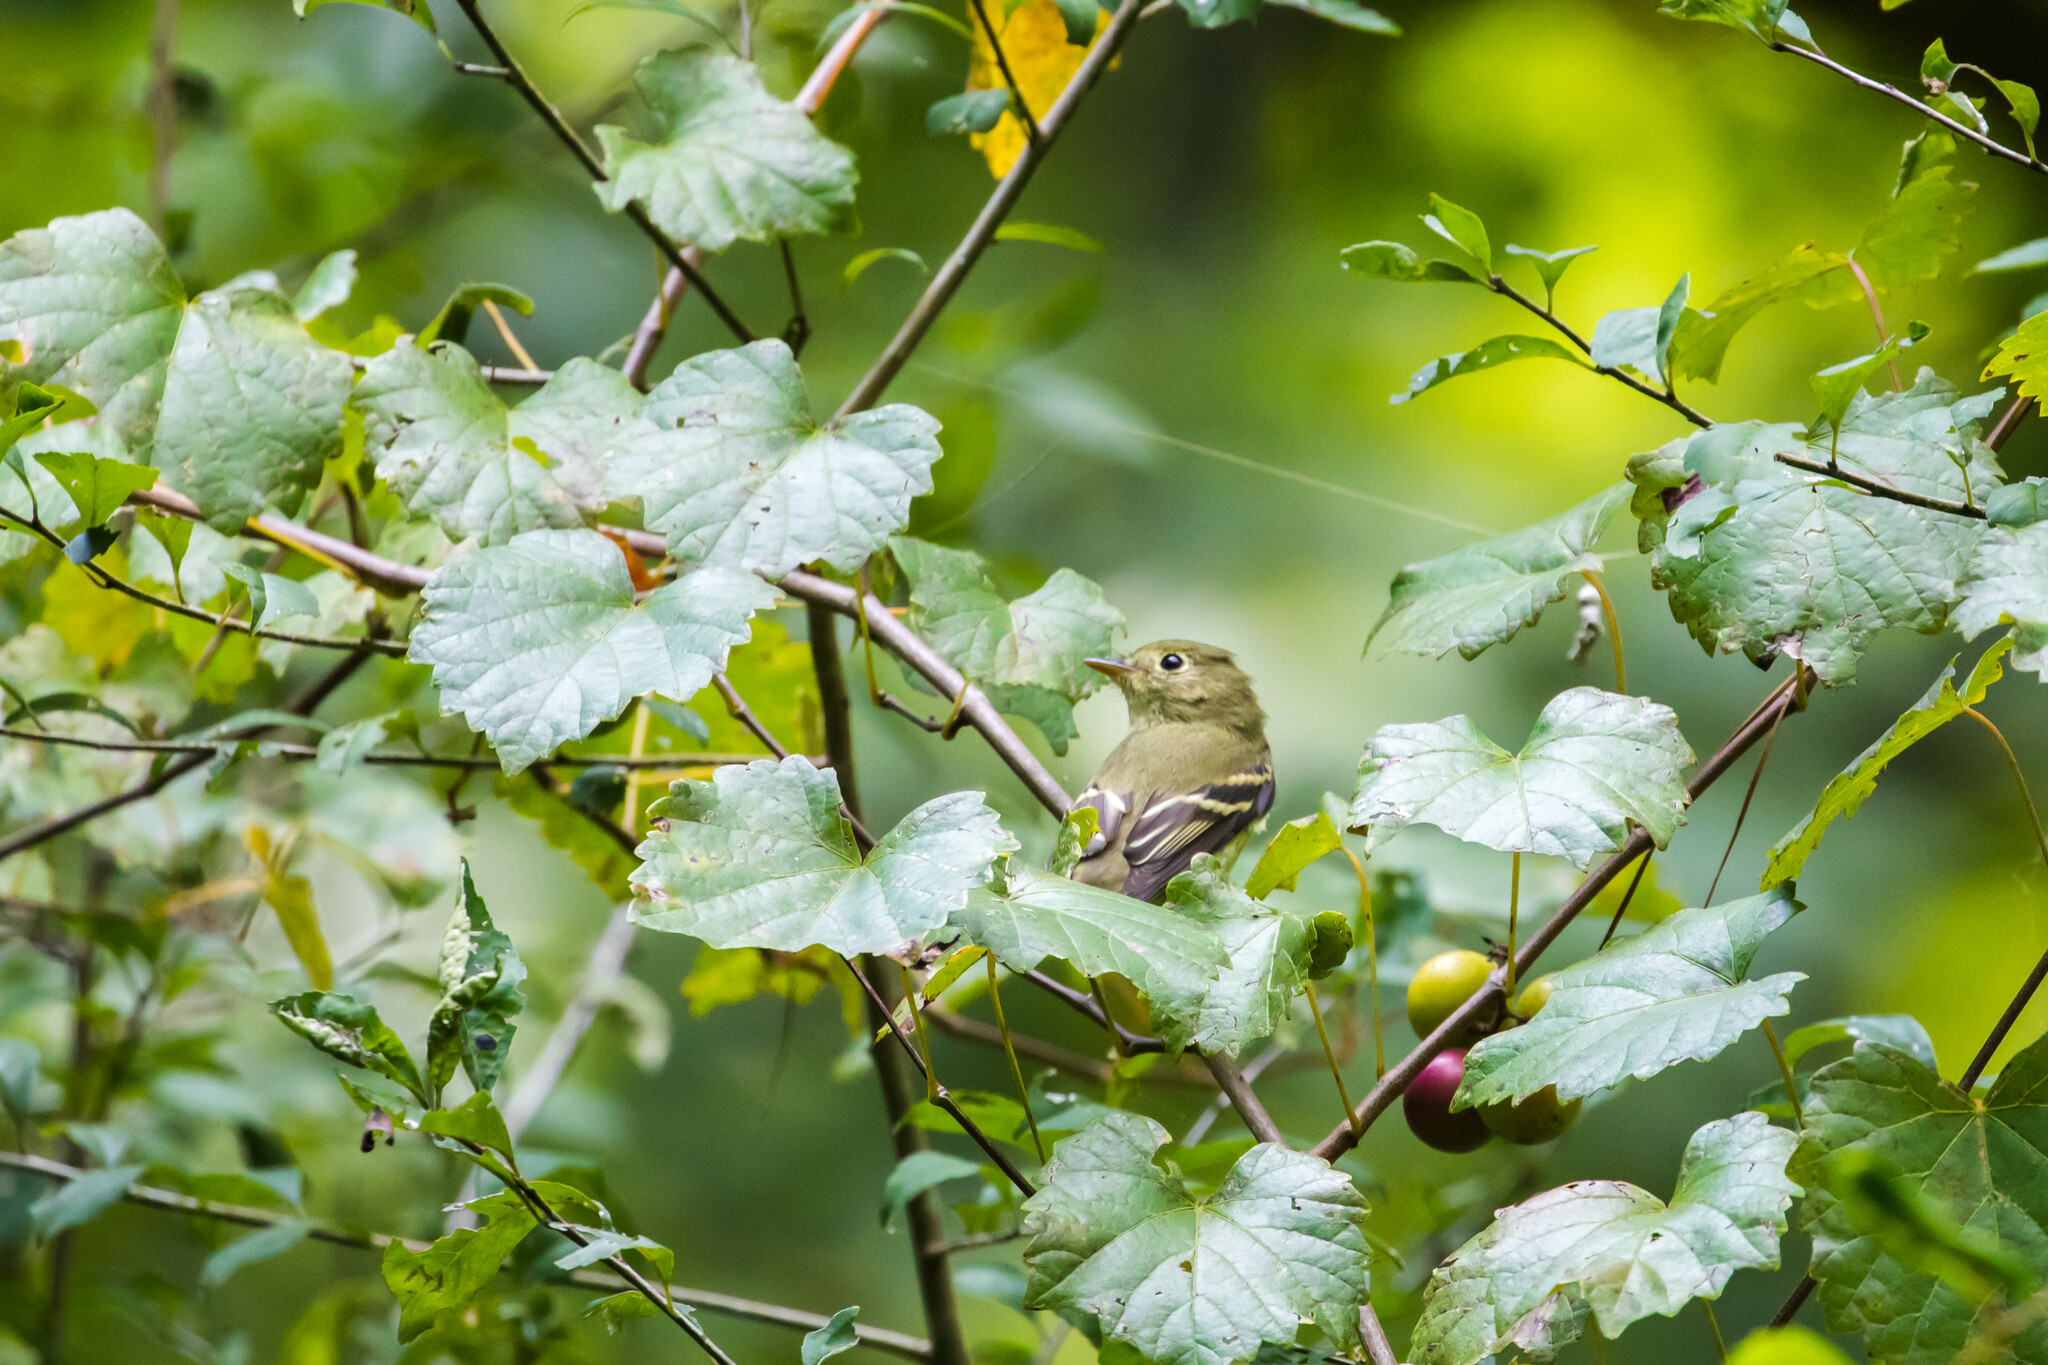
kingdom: Animalia
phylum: Chordata
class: Aves
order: Passeriformes
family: Tyrannidae
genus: Empidonax
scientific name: Empidonax flaviventris
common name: Yellow-bellied flycatcher
